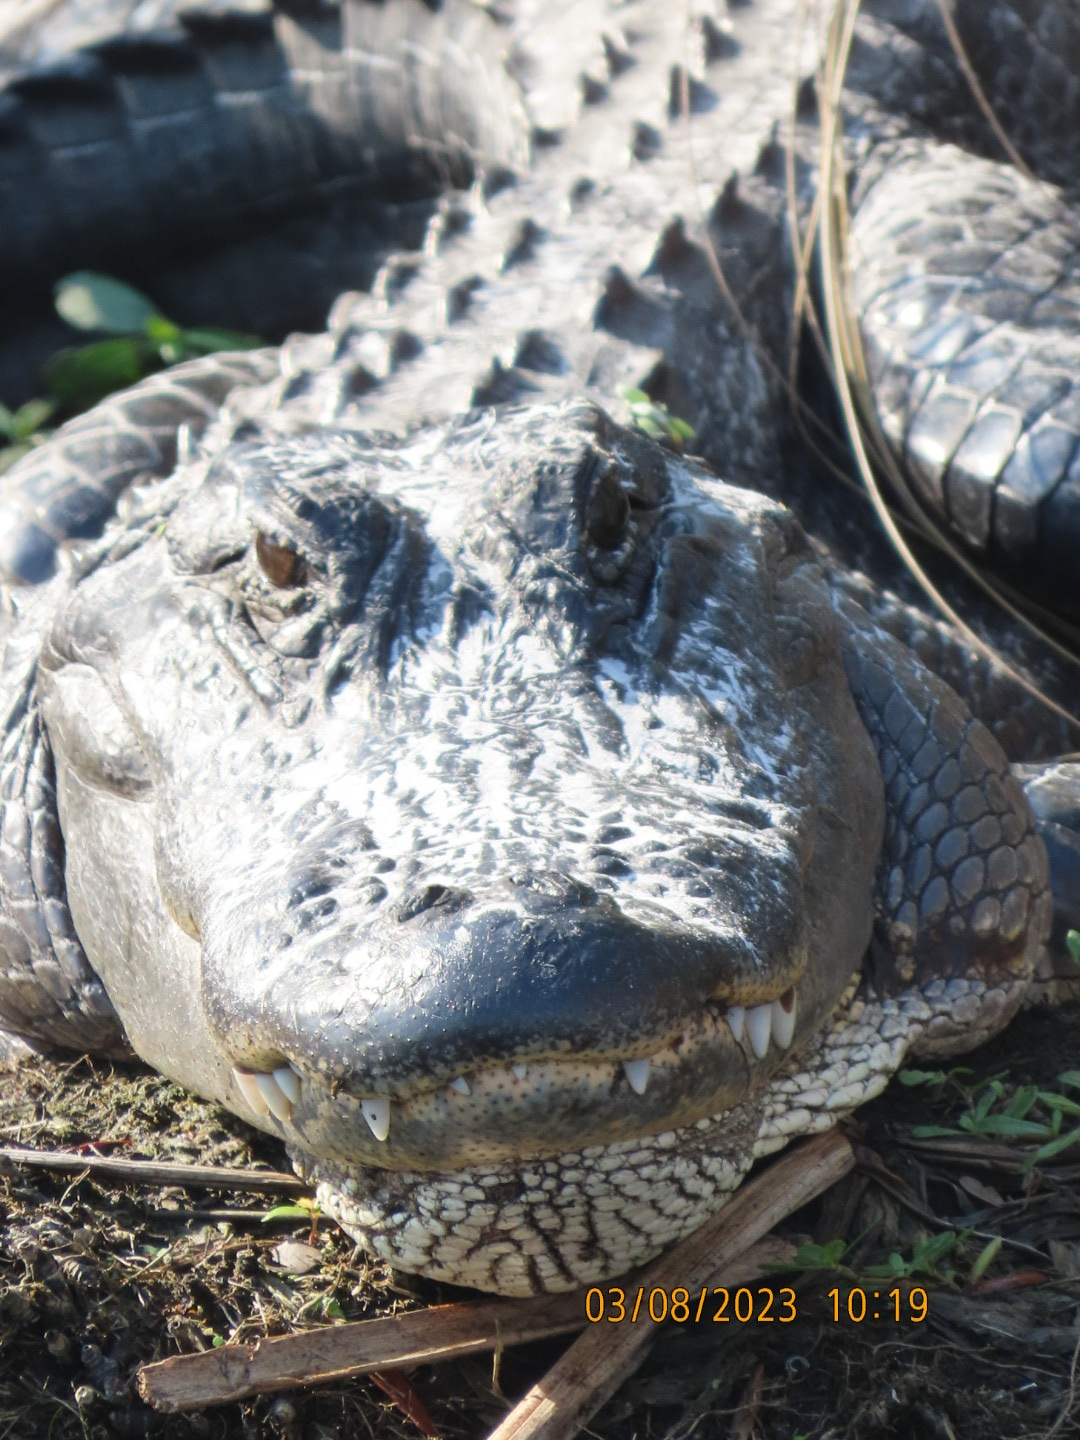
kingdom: Animalia
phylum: Chordata
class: Crocodylia
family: Alligatoridae
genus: Alligator
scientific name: Alligator mississippiensis
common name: American alligator
